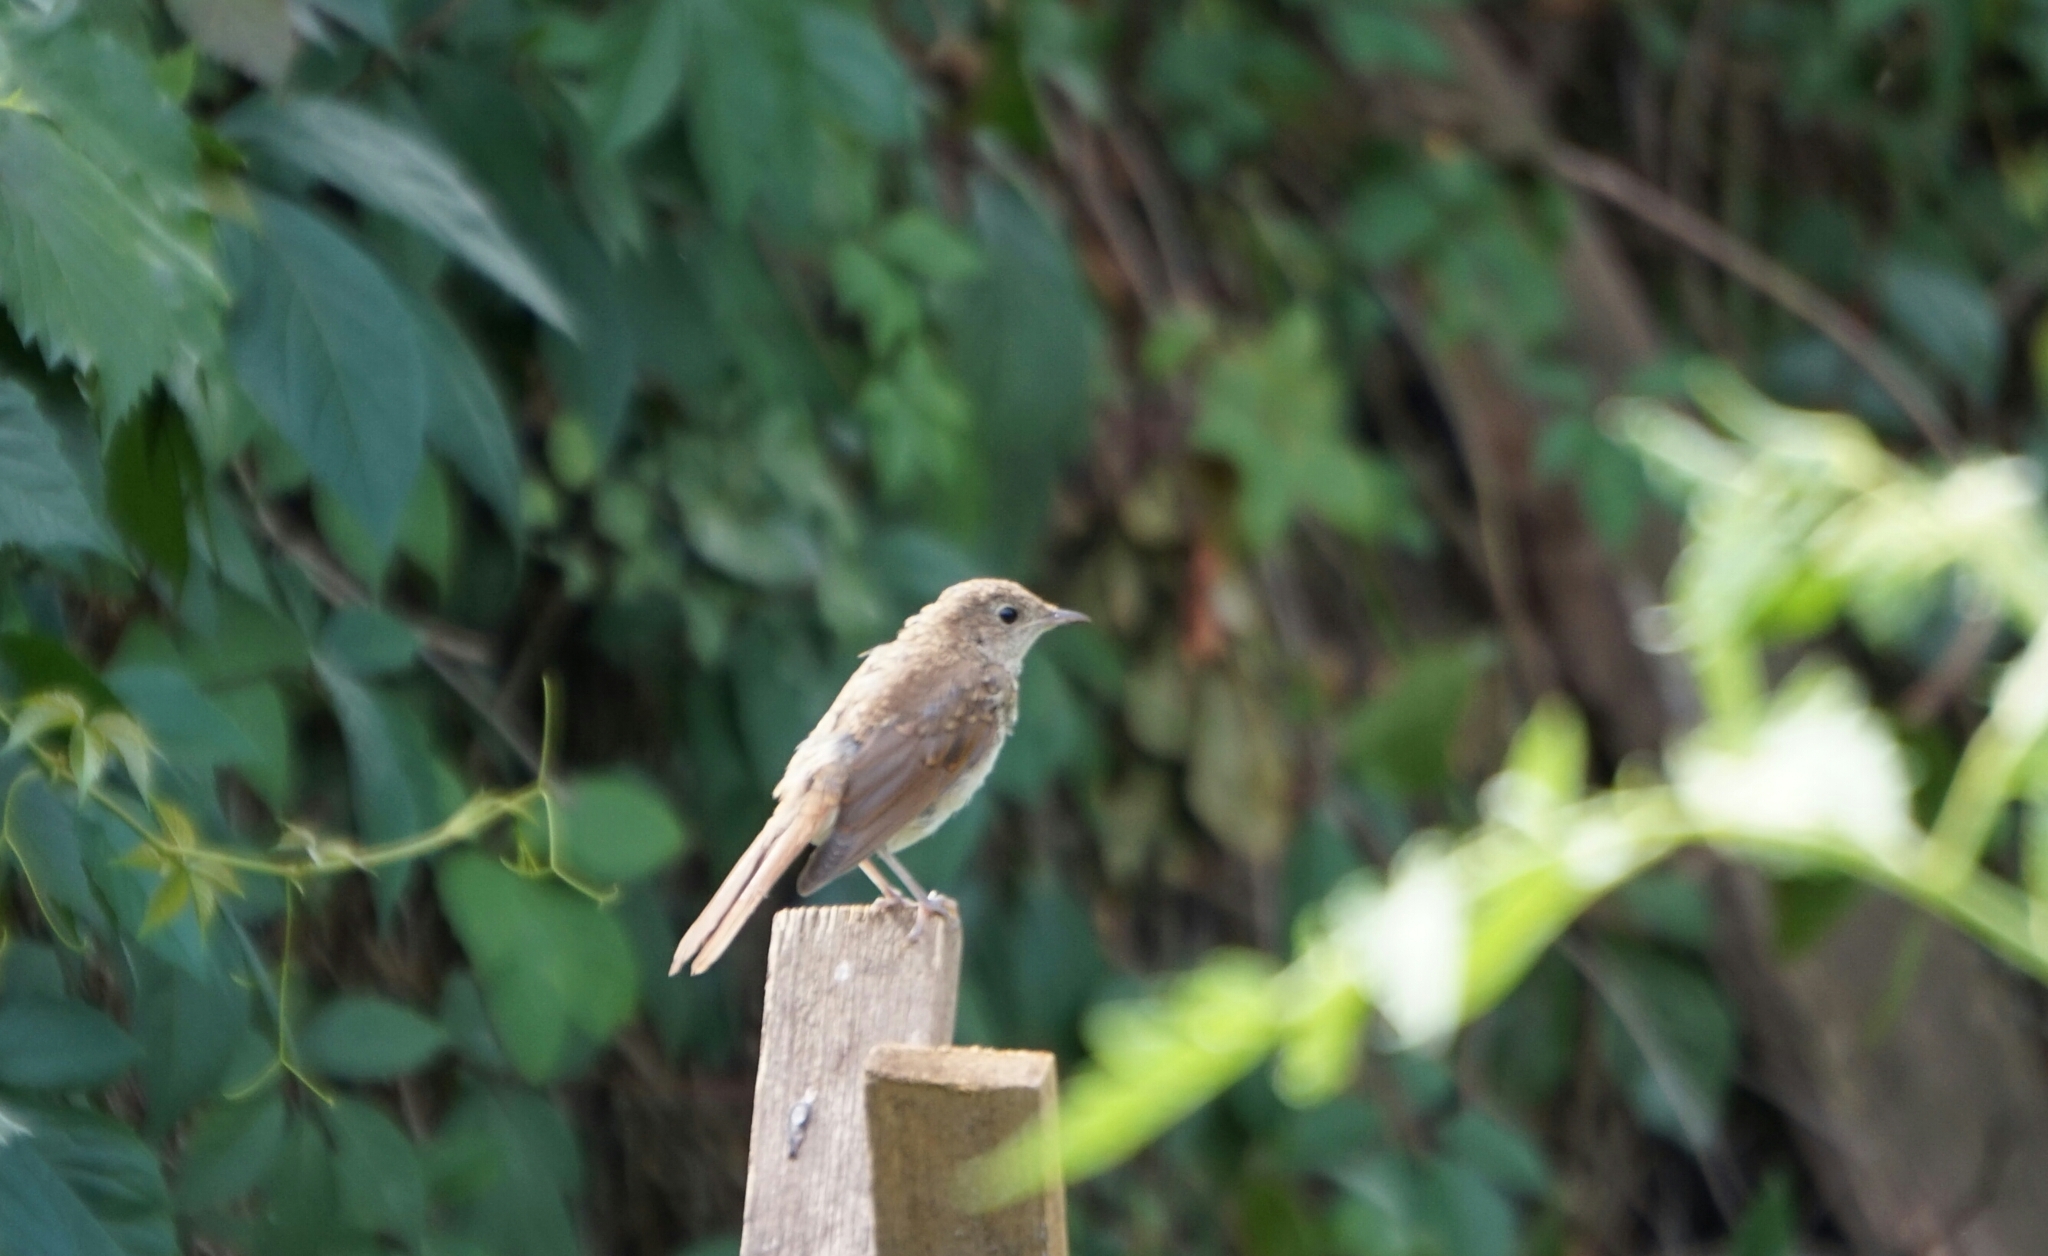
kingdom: Animalia
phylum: Chordata
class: Aves
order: Passeriformes
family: Muscicapidae
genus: Luscinia
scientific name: Luscinia megarhynchos
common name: Common nightingale
